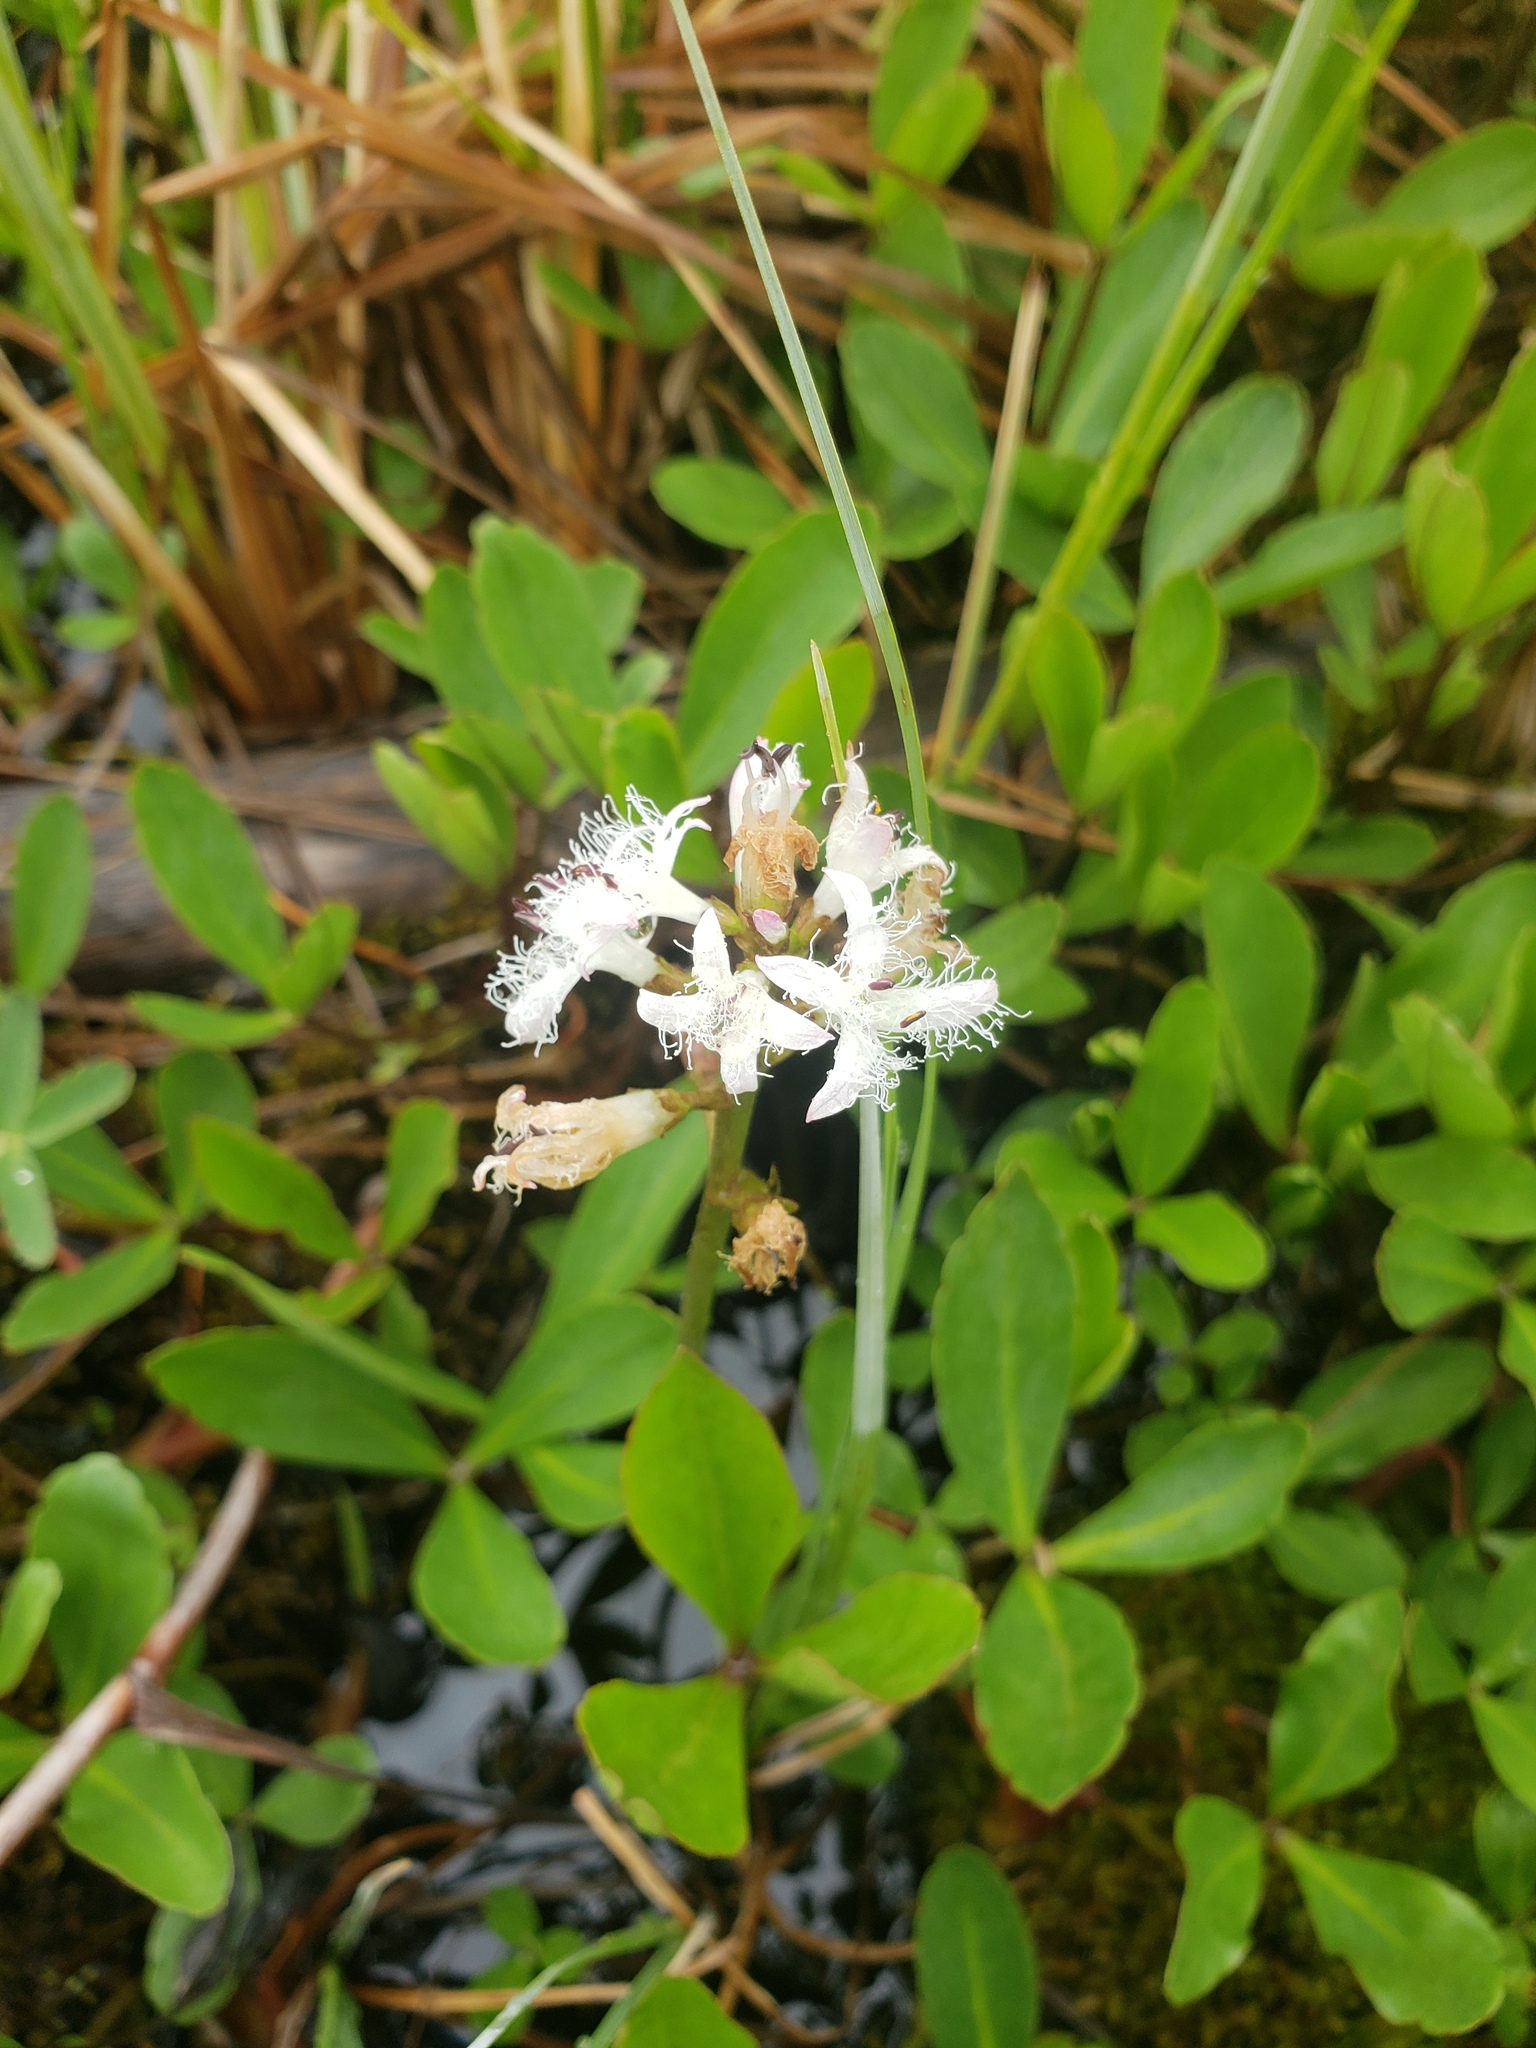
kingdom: Plantae
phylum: Tracheophyta
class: Magnoliopsida
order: Asterales
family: Menyanthaceae
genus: Menyanthes
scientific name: Menyanthes trifoliata
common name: Bogbean
